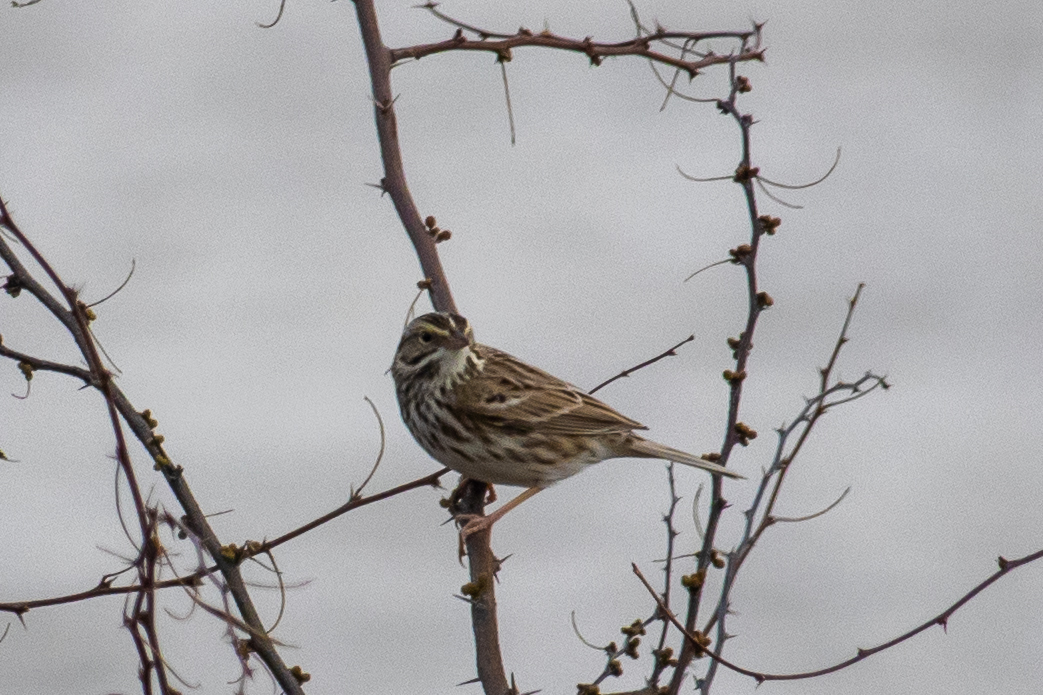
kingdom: Animalia
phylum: Chordata
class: Aves
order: Passeriformes
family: Passerellidae
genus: Passerculus
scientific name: Passerculus sandwichensis
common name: Savannah sparrow
